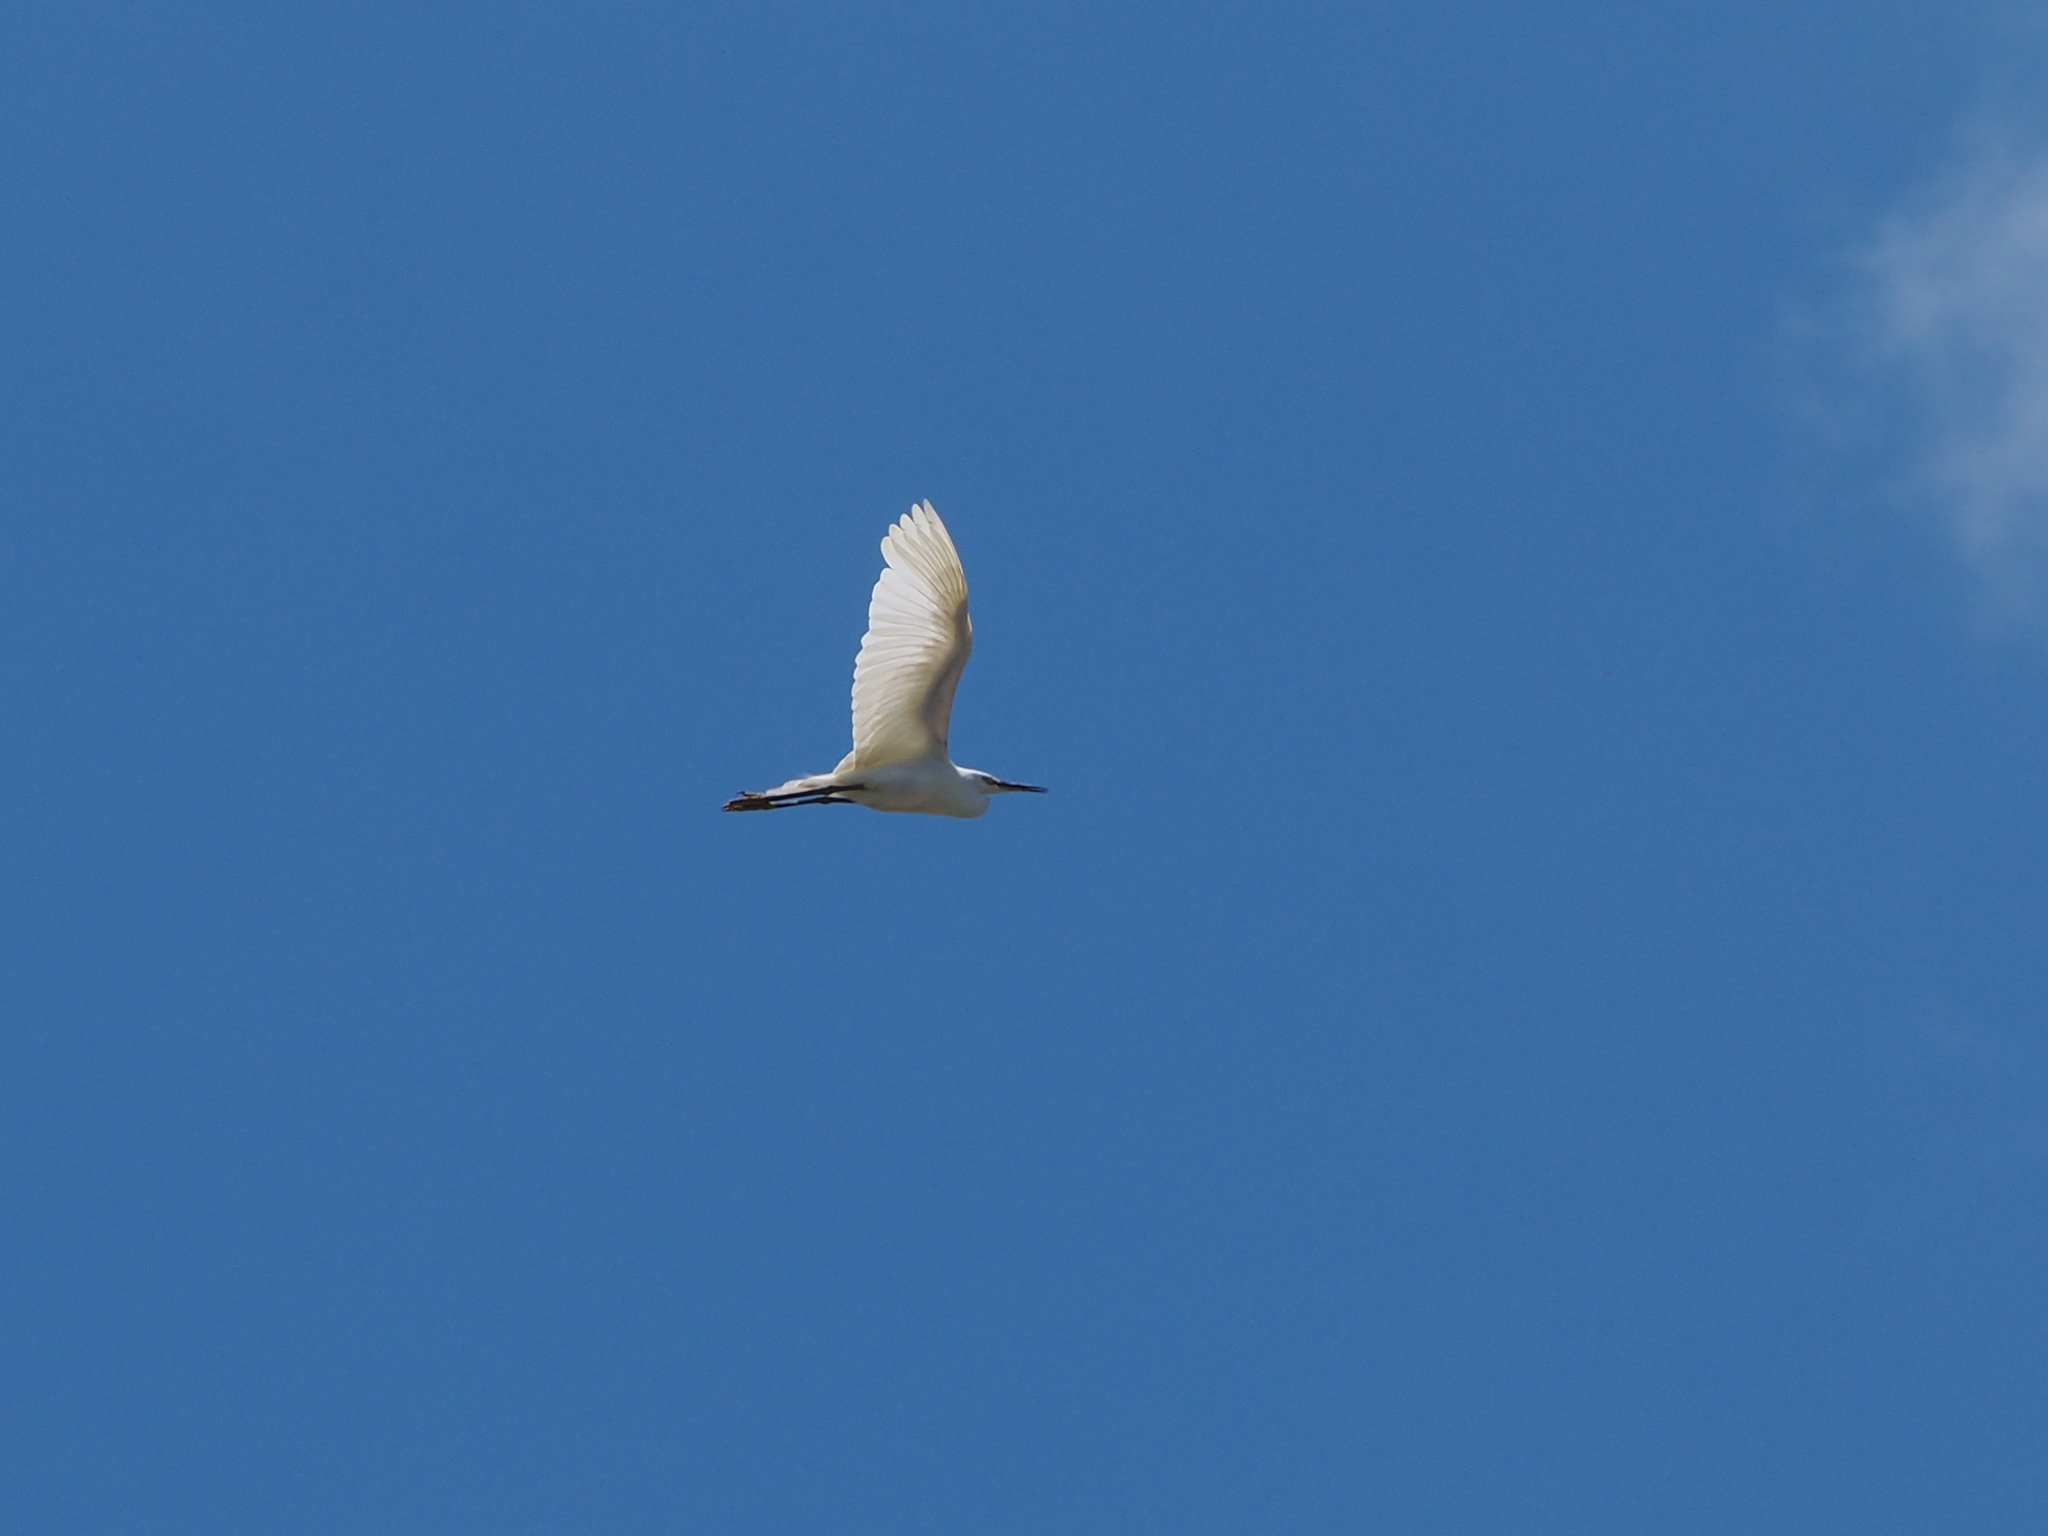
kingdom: Animalia
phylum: Chordata
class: Aves
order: Pelecaniformes
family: Ardeidae
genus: Egretta
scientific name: Egretta garzetta
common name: Little egret
